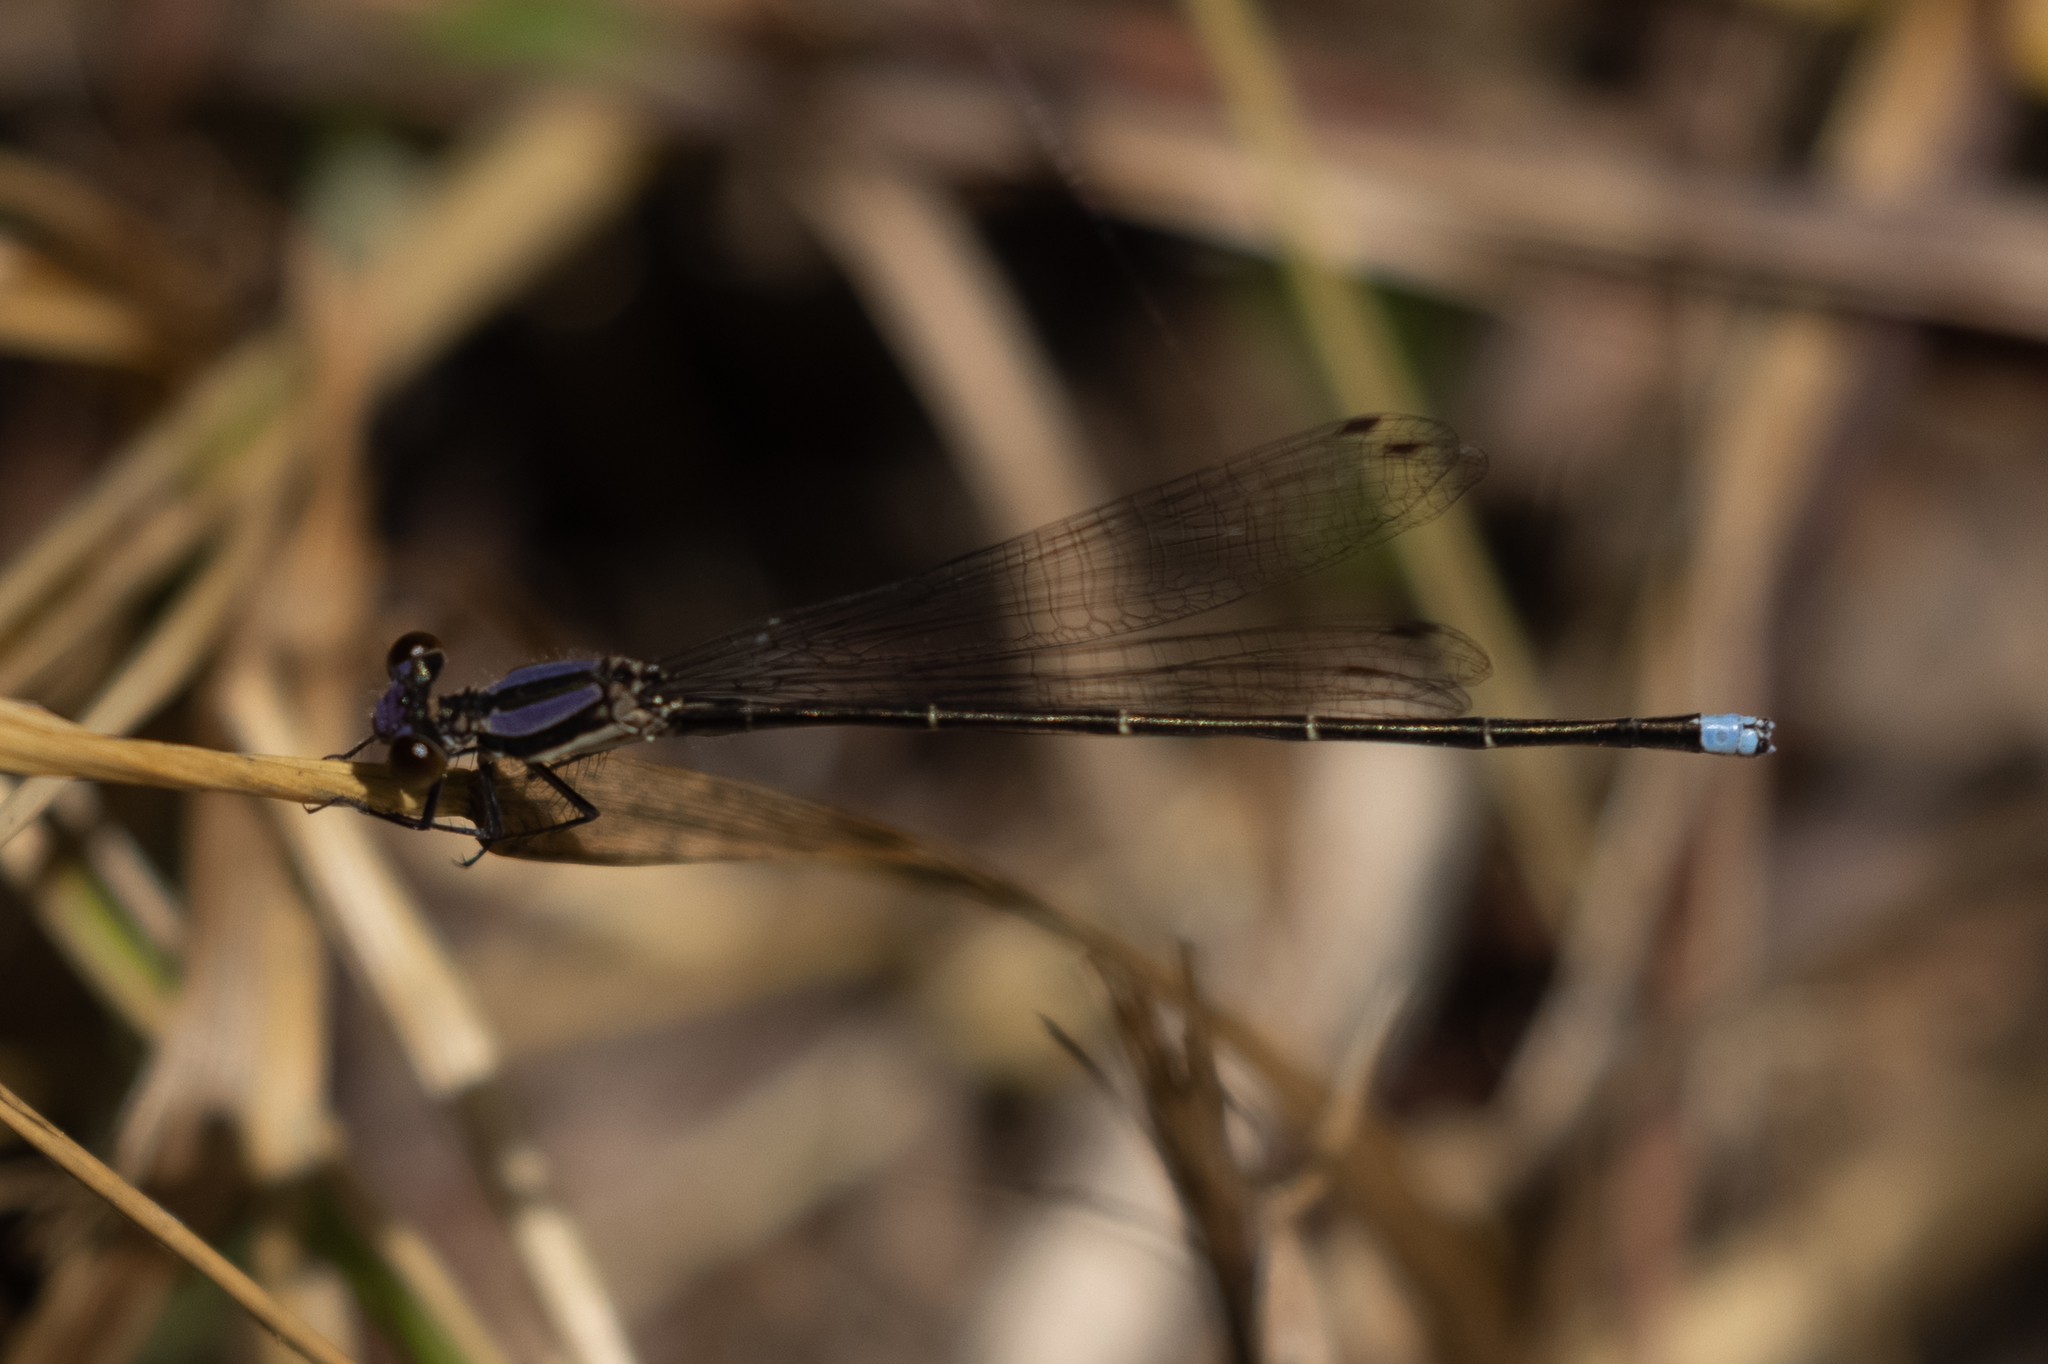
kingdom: Animalia
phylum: Arthropoda
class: Insecta
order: Odonata
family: Coenagrionidae
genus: Argia
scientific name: Argia tibialis
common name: Blue-tipped dancer
